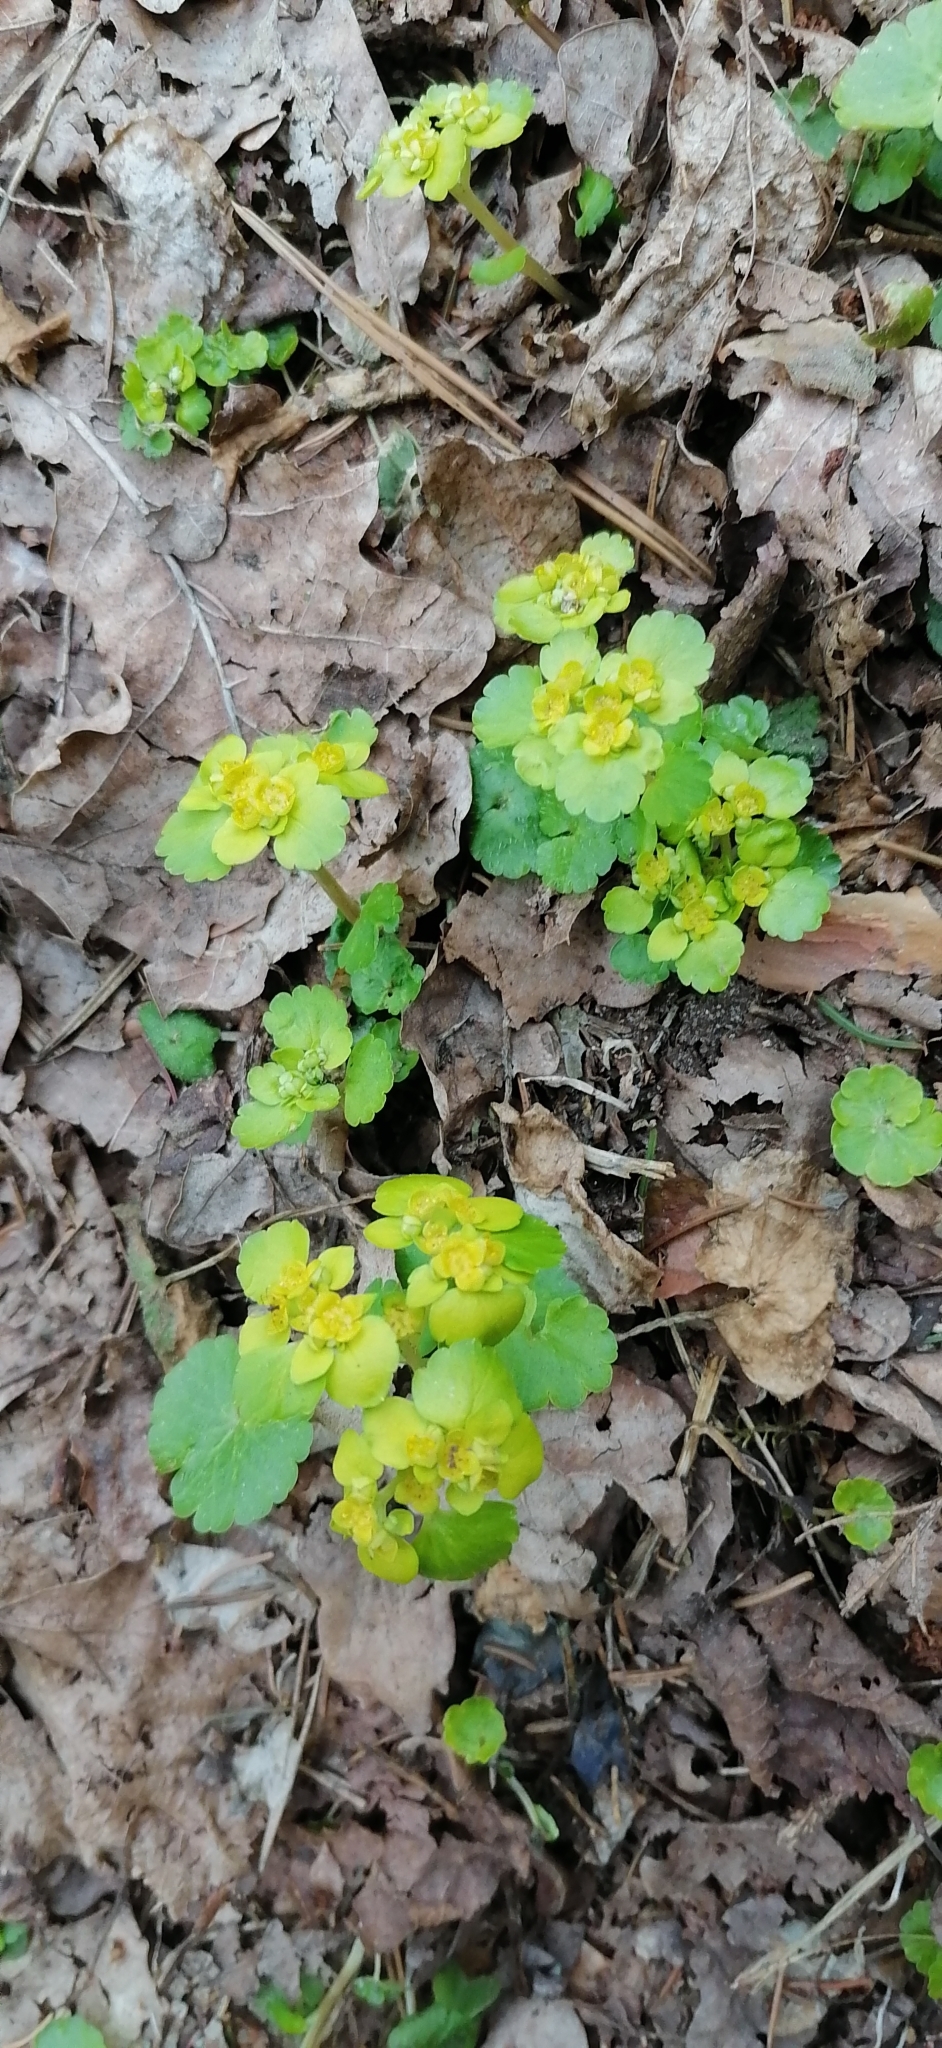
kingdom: Plantae
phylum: Tracheophyta
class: Magnoliopsida
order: Saxifragales
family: Saxifragaceae
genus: Chrysosplenium
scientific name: Chrysosplenium alternifolium
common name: Alternate-leaved golden-saxifrage
